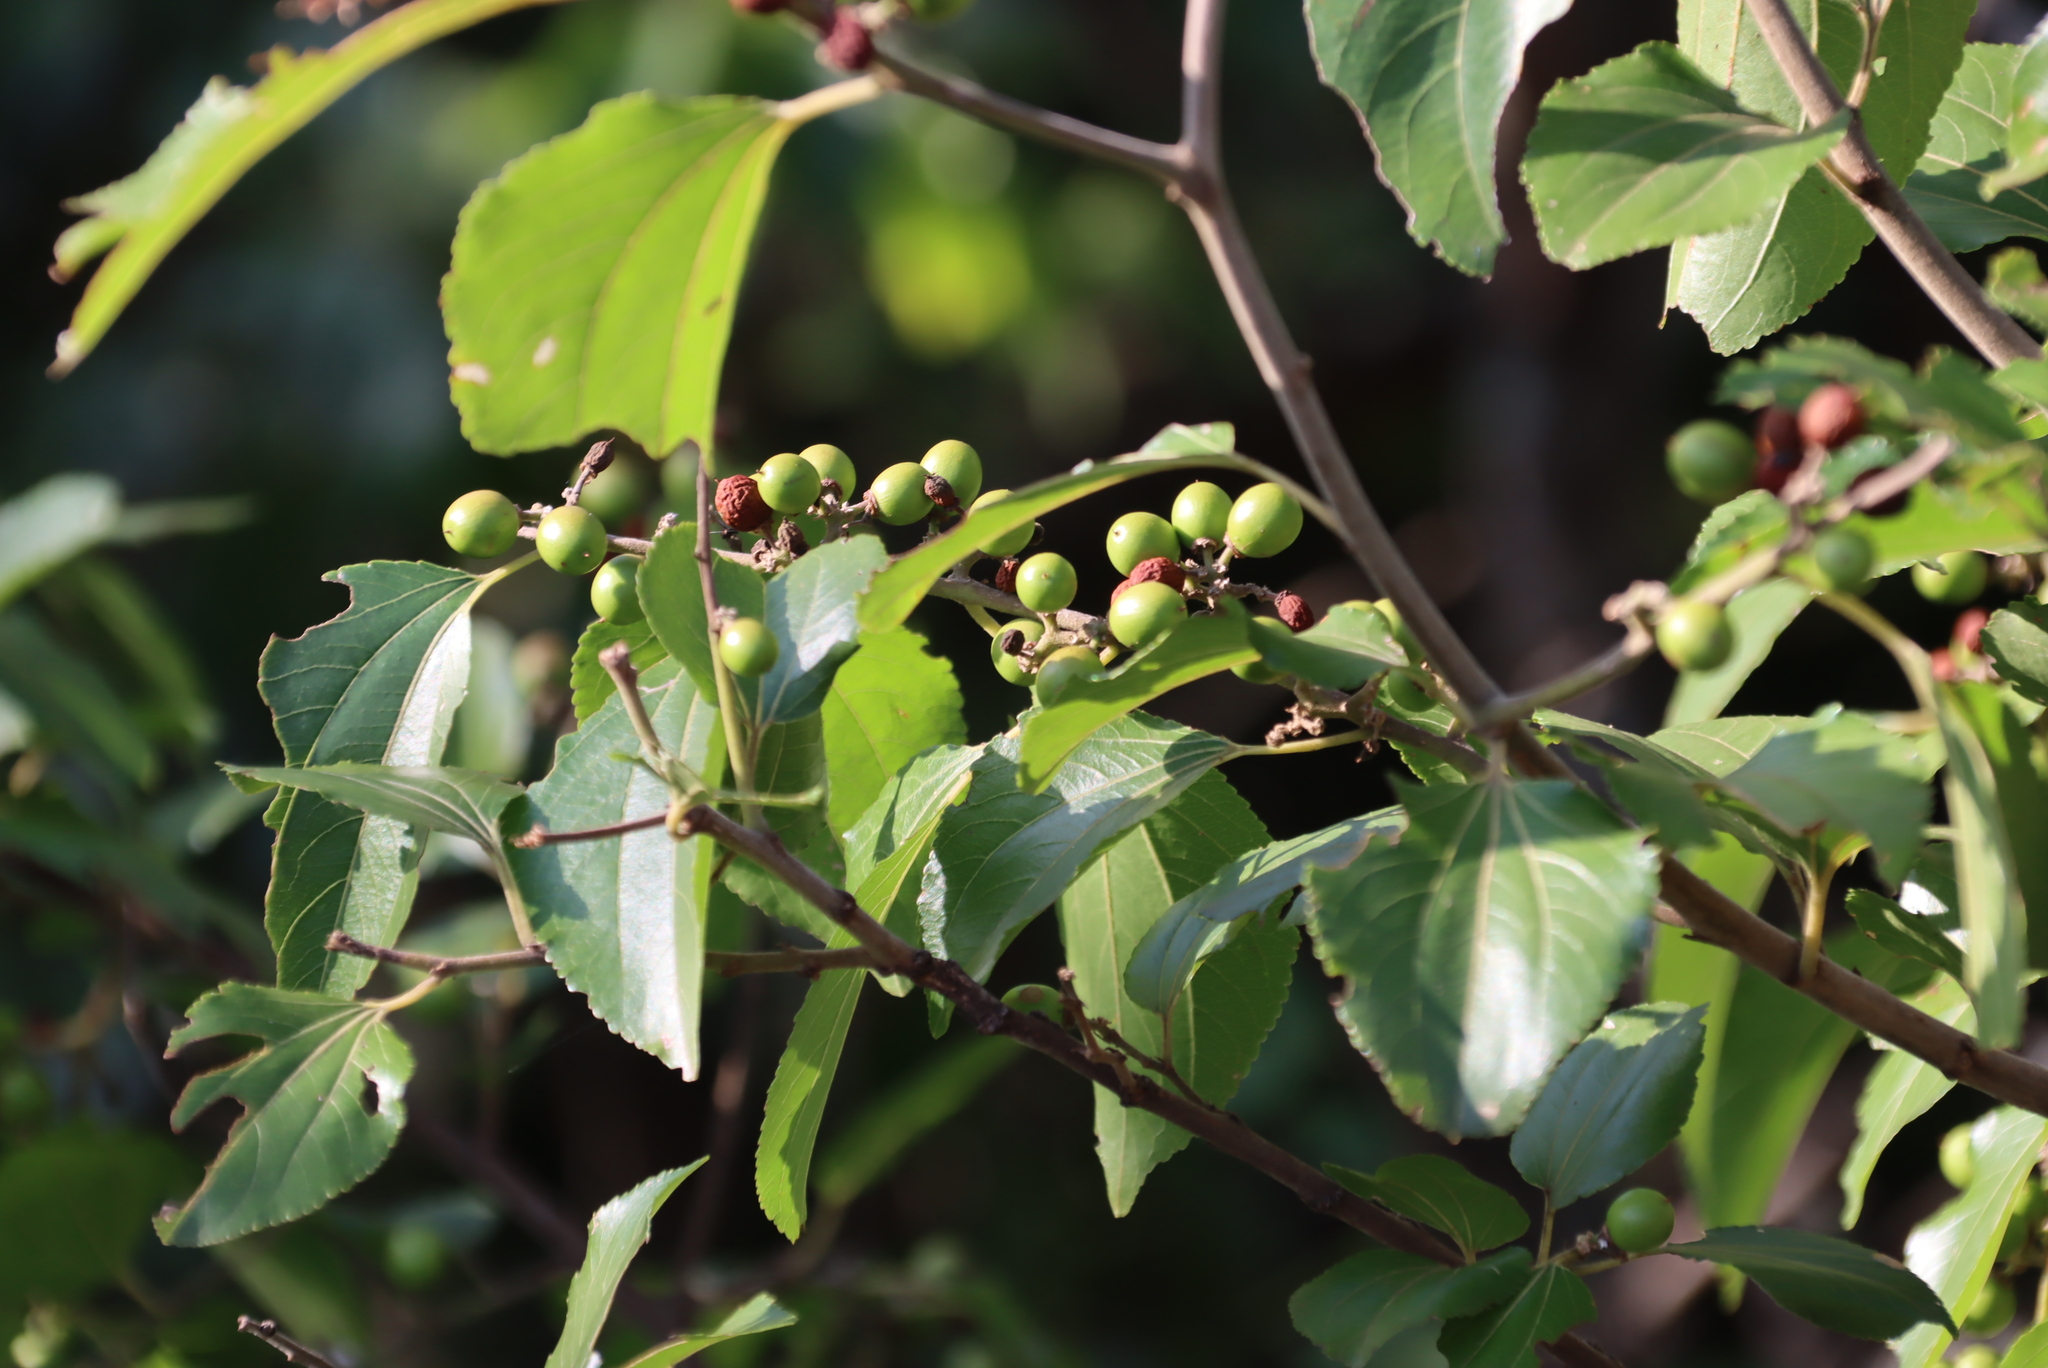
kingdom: Plantae
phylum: Tracheophyta
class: Magnoliopsida
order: Rosales
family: Rhamnaceae
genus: Ziziphus
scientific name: Ziziphus mucronata
